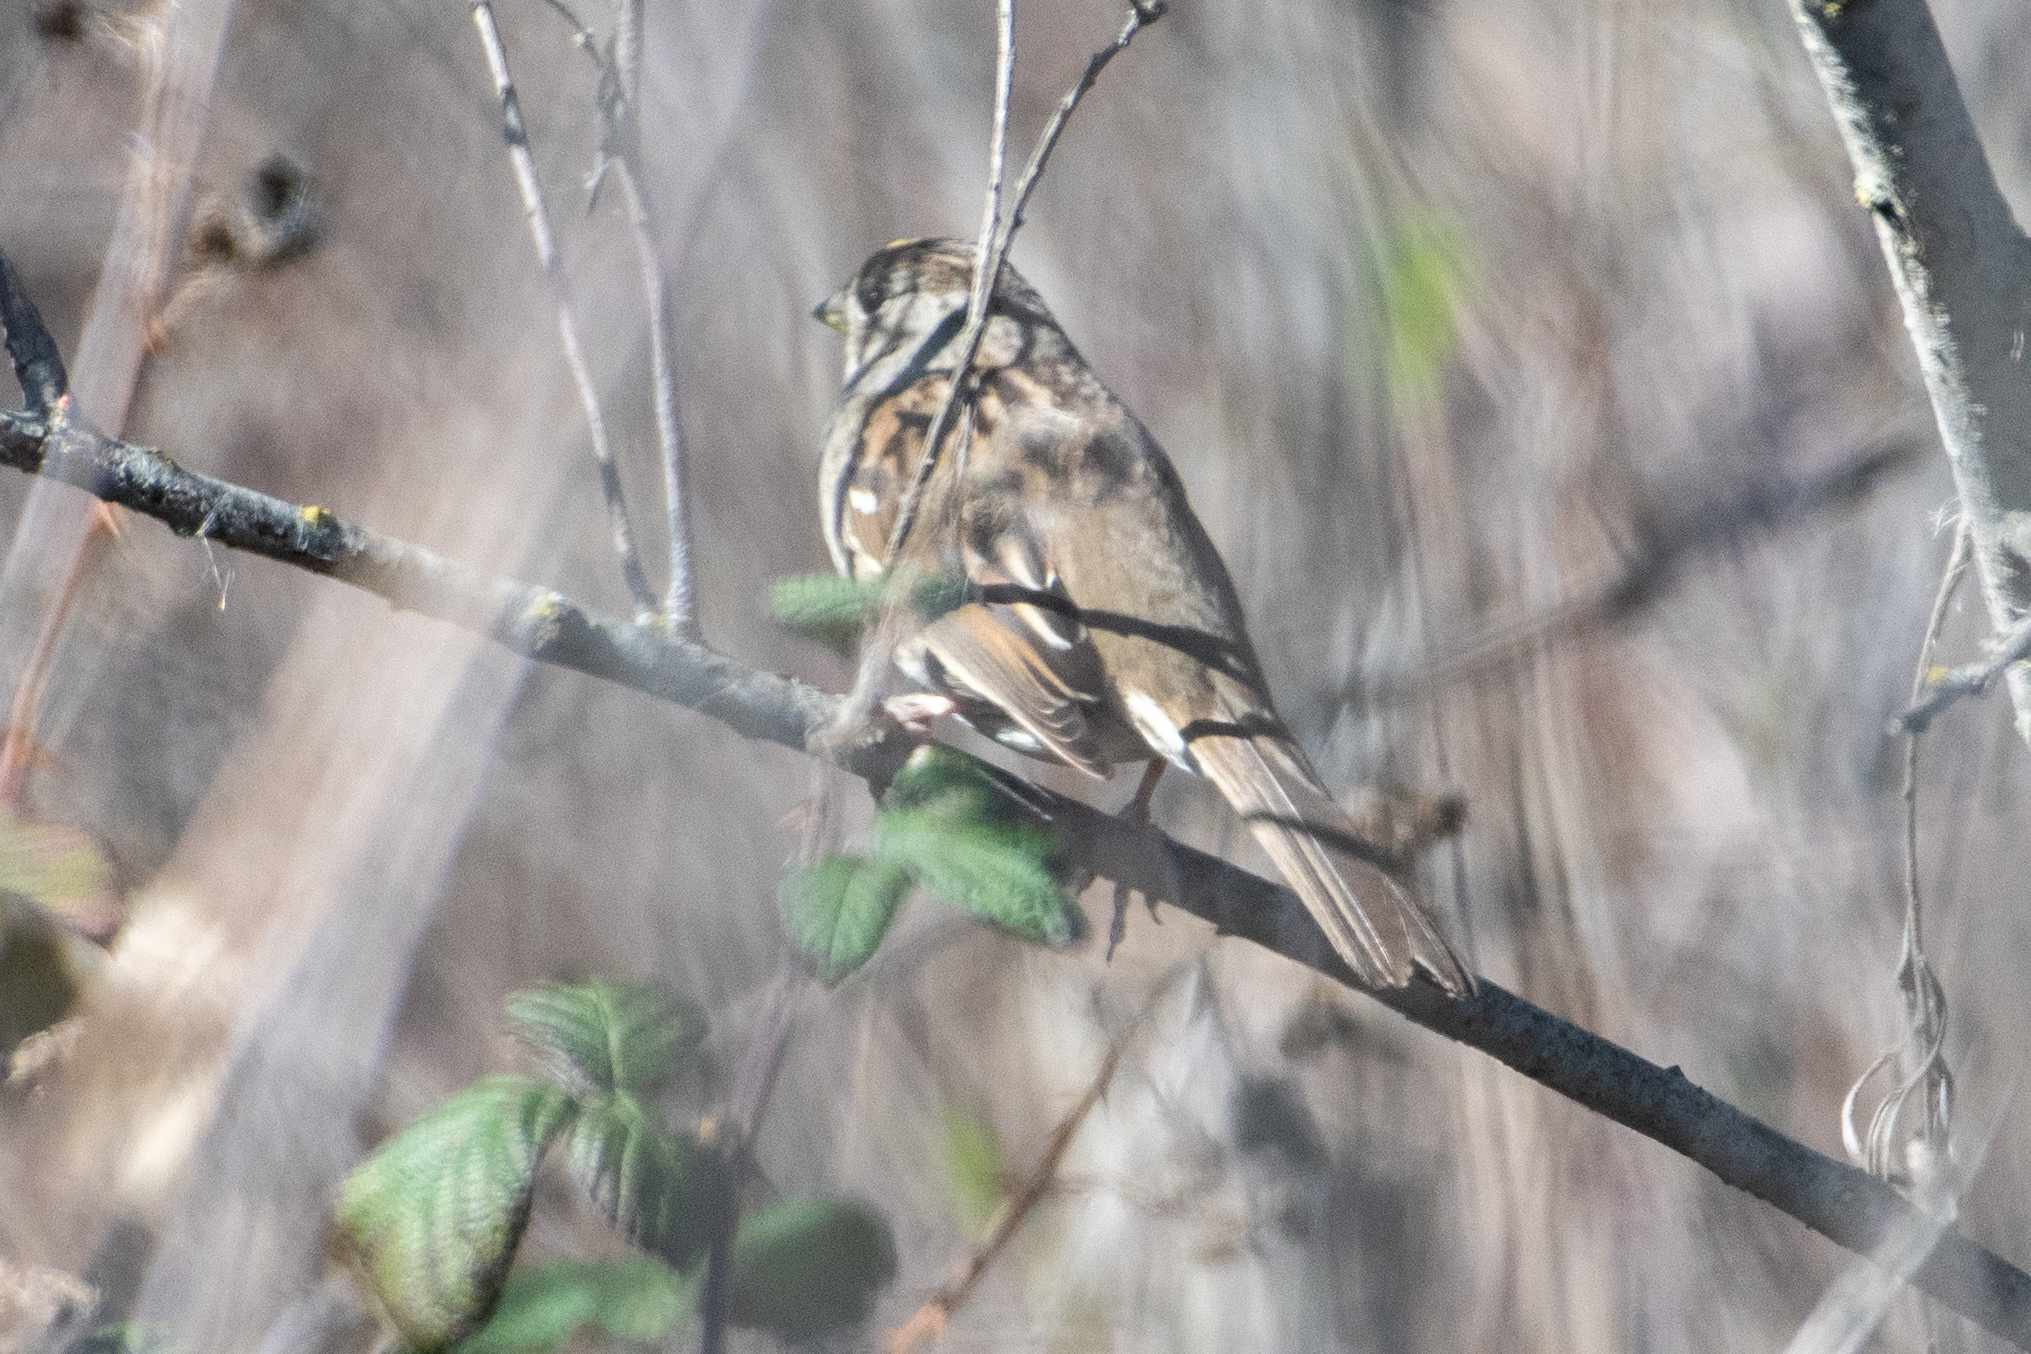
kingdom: Animalia
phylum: Chordata
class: Aves
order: Passeriformes
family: Passerellidae
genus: Zonotrichia
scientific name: Zonotrichia atricapilla
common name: Golden-crowned sparrow
